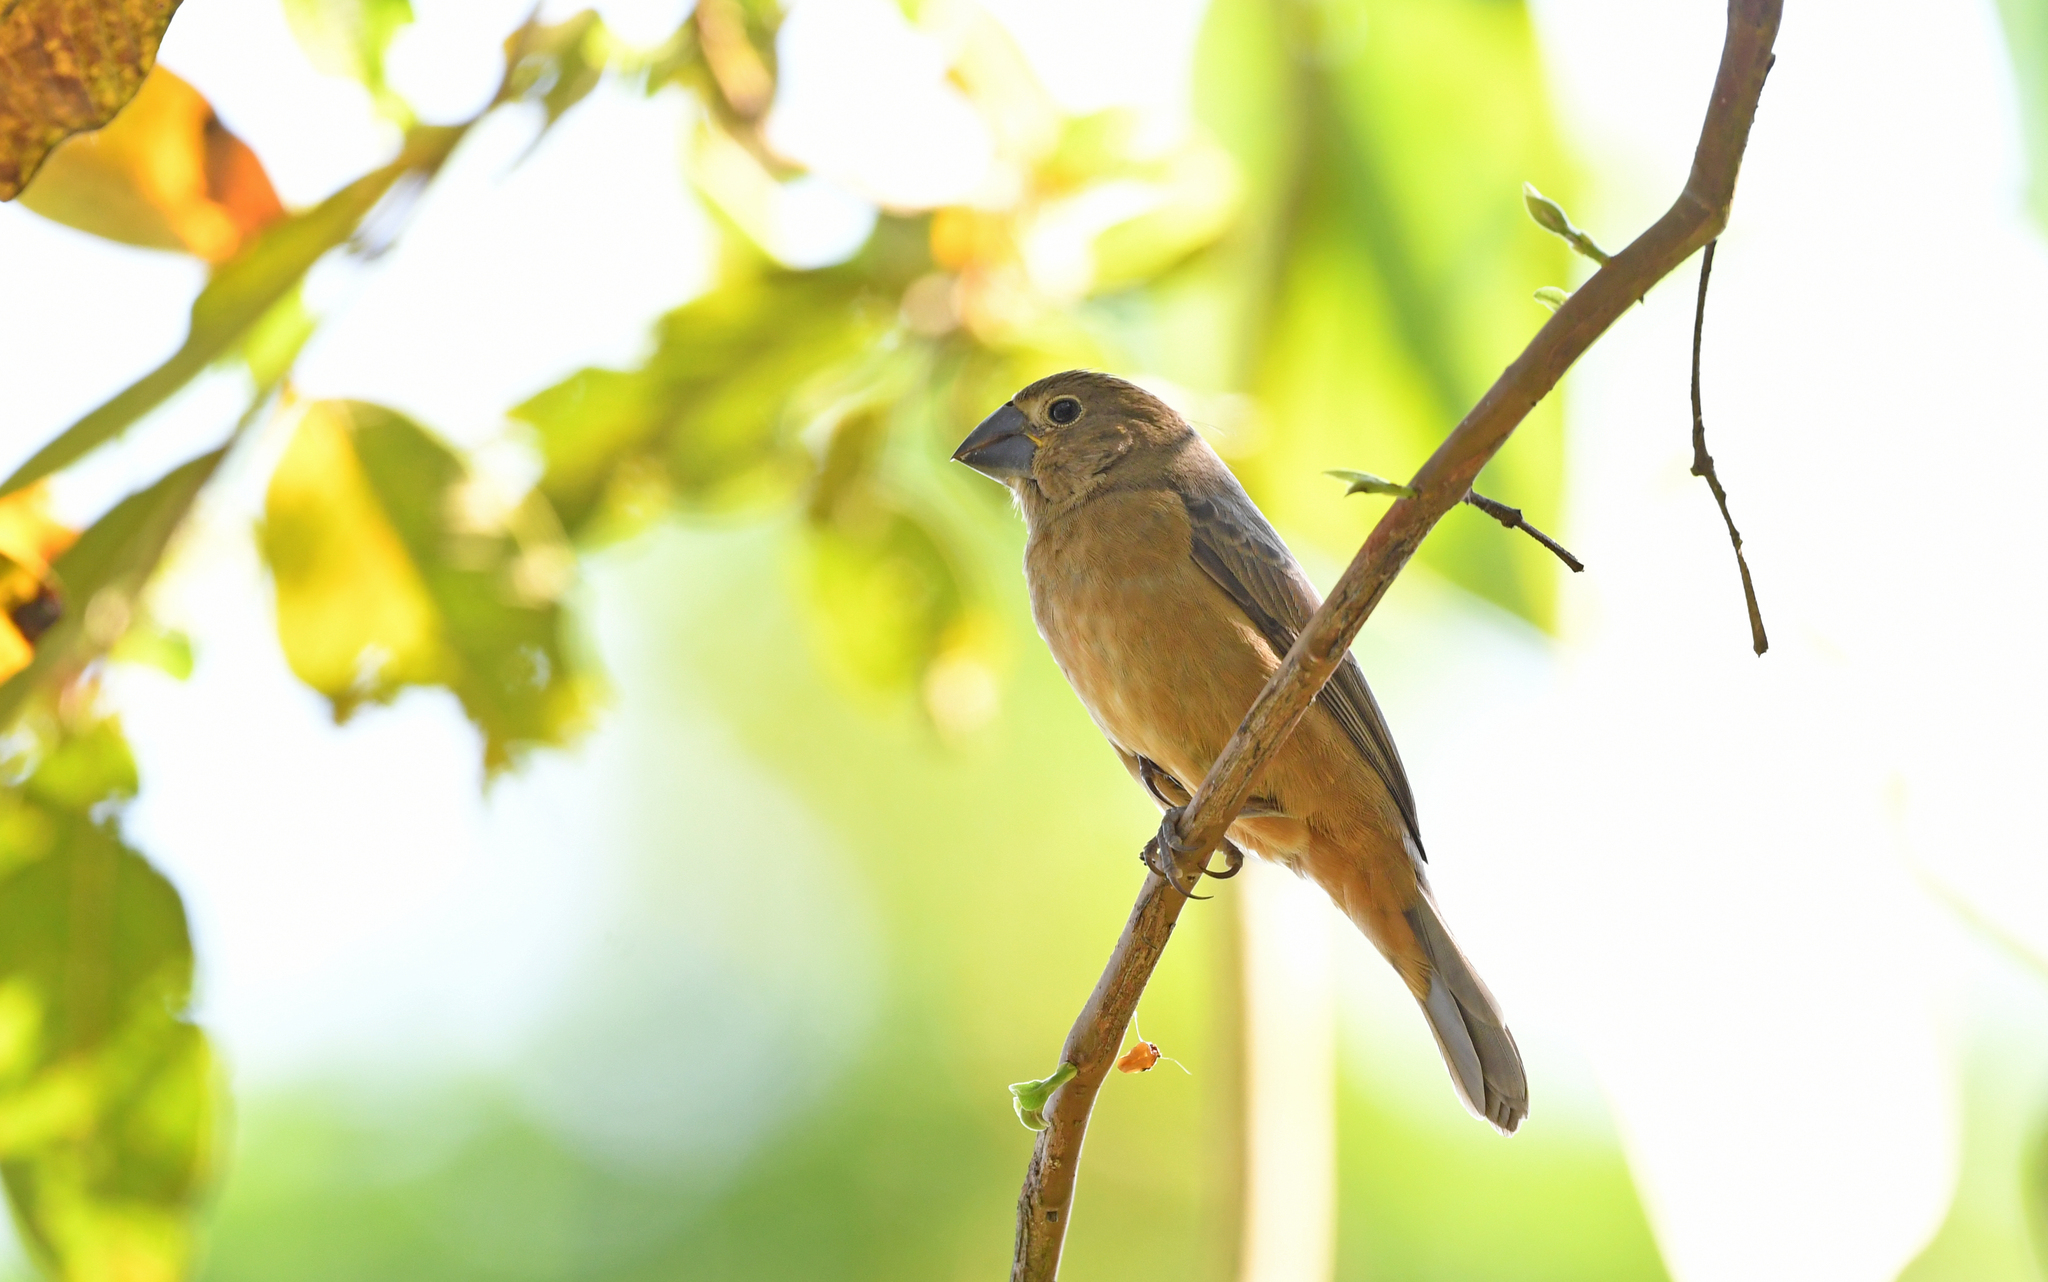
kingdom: Animalia
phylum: Chordata
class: Aves
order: Passeriformes
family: Thraupidae
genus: Sporophila
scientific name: Sporophila funerea
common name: Thick-billed seed-finch
